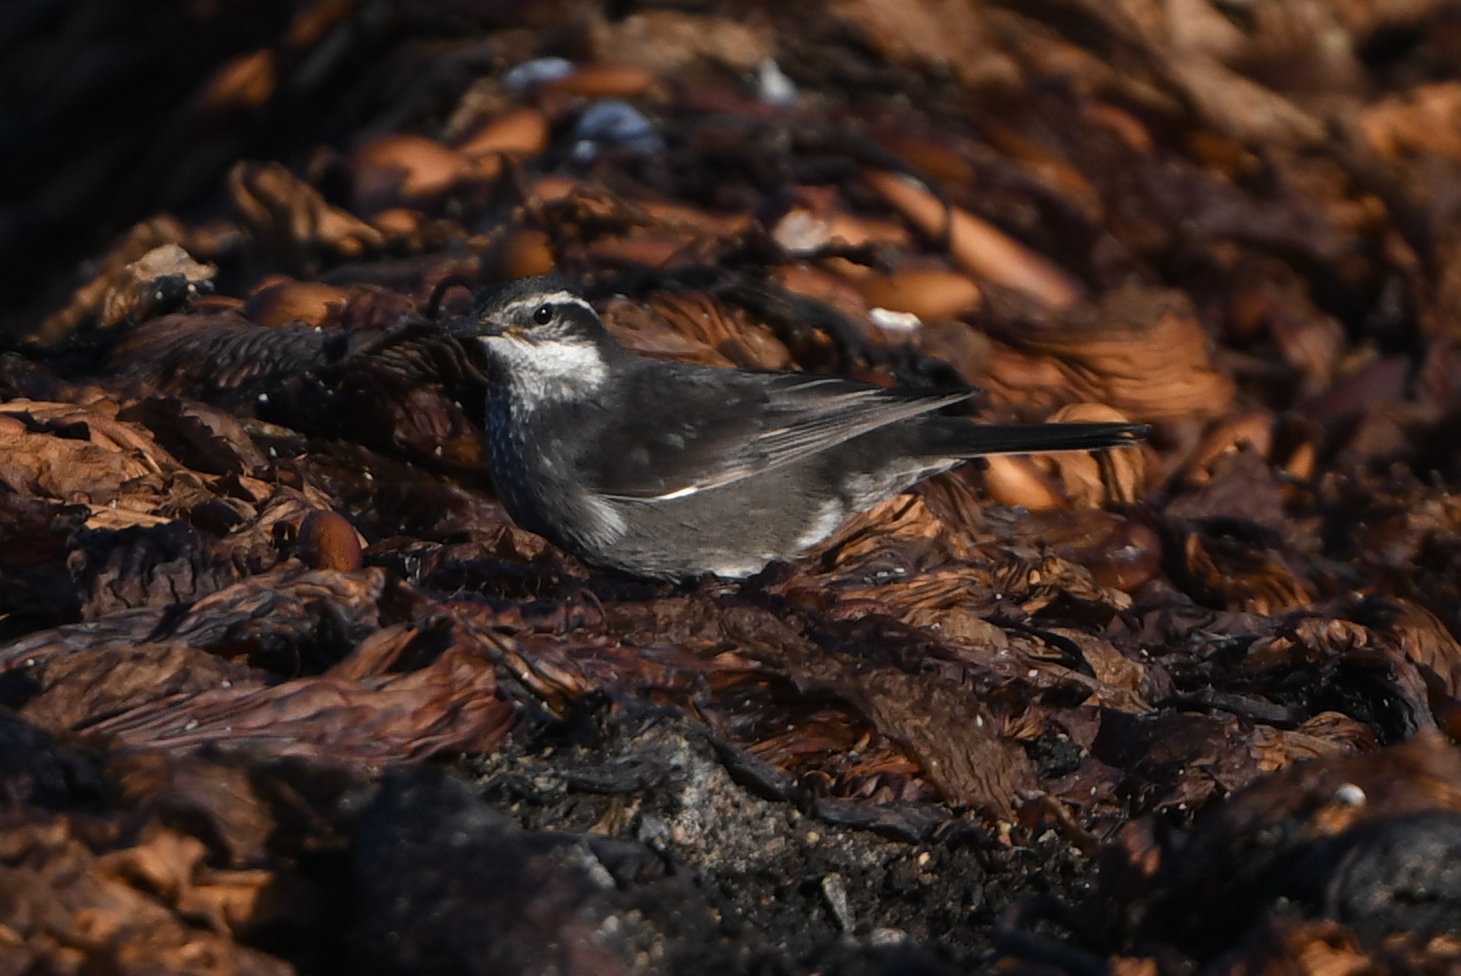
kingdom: Animalia
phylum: Chordata
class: Aves
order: Passeriformes
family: Furnariidae
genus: Cinclodes
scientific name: Cinclodes patagonicus
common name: Dark-bellied cinclodes
